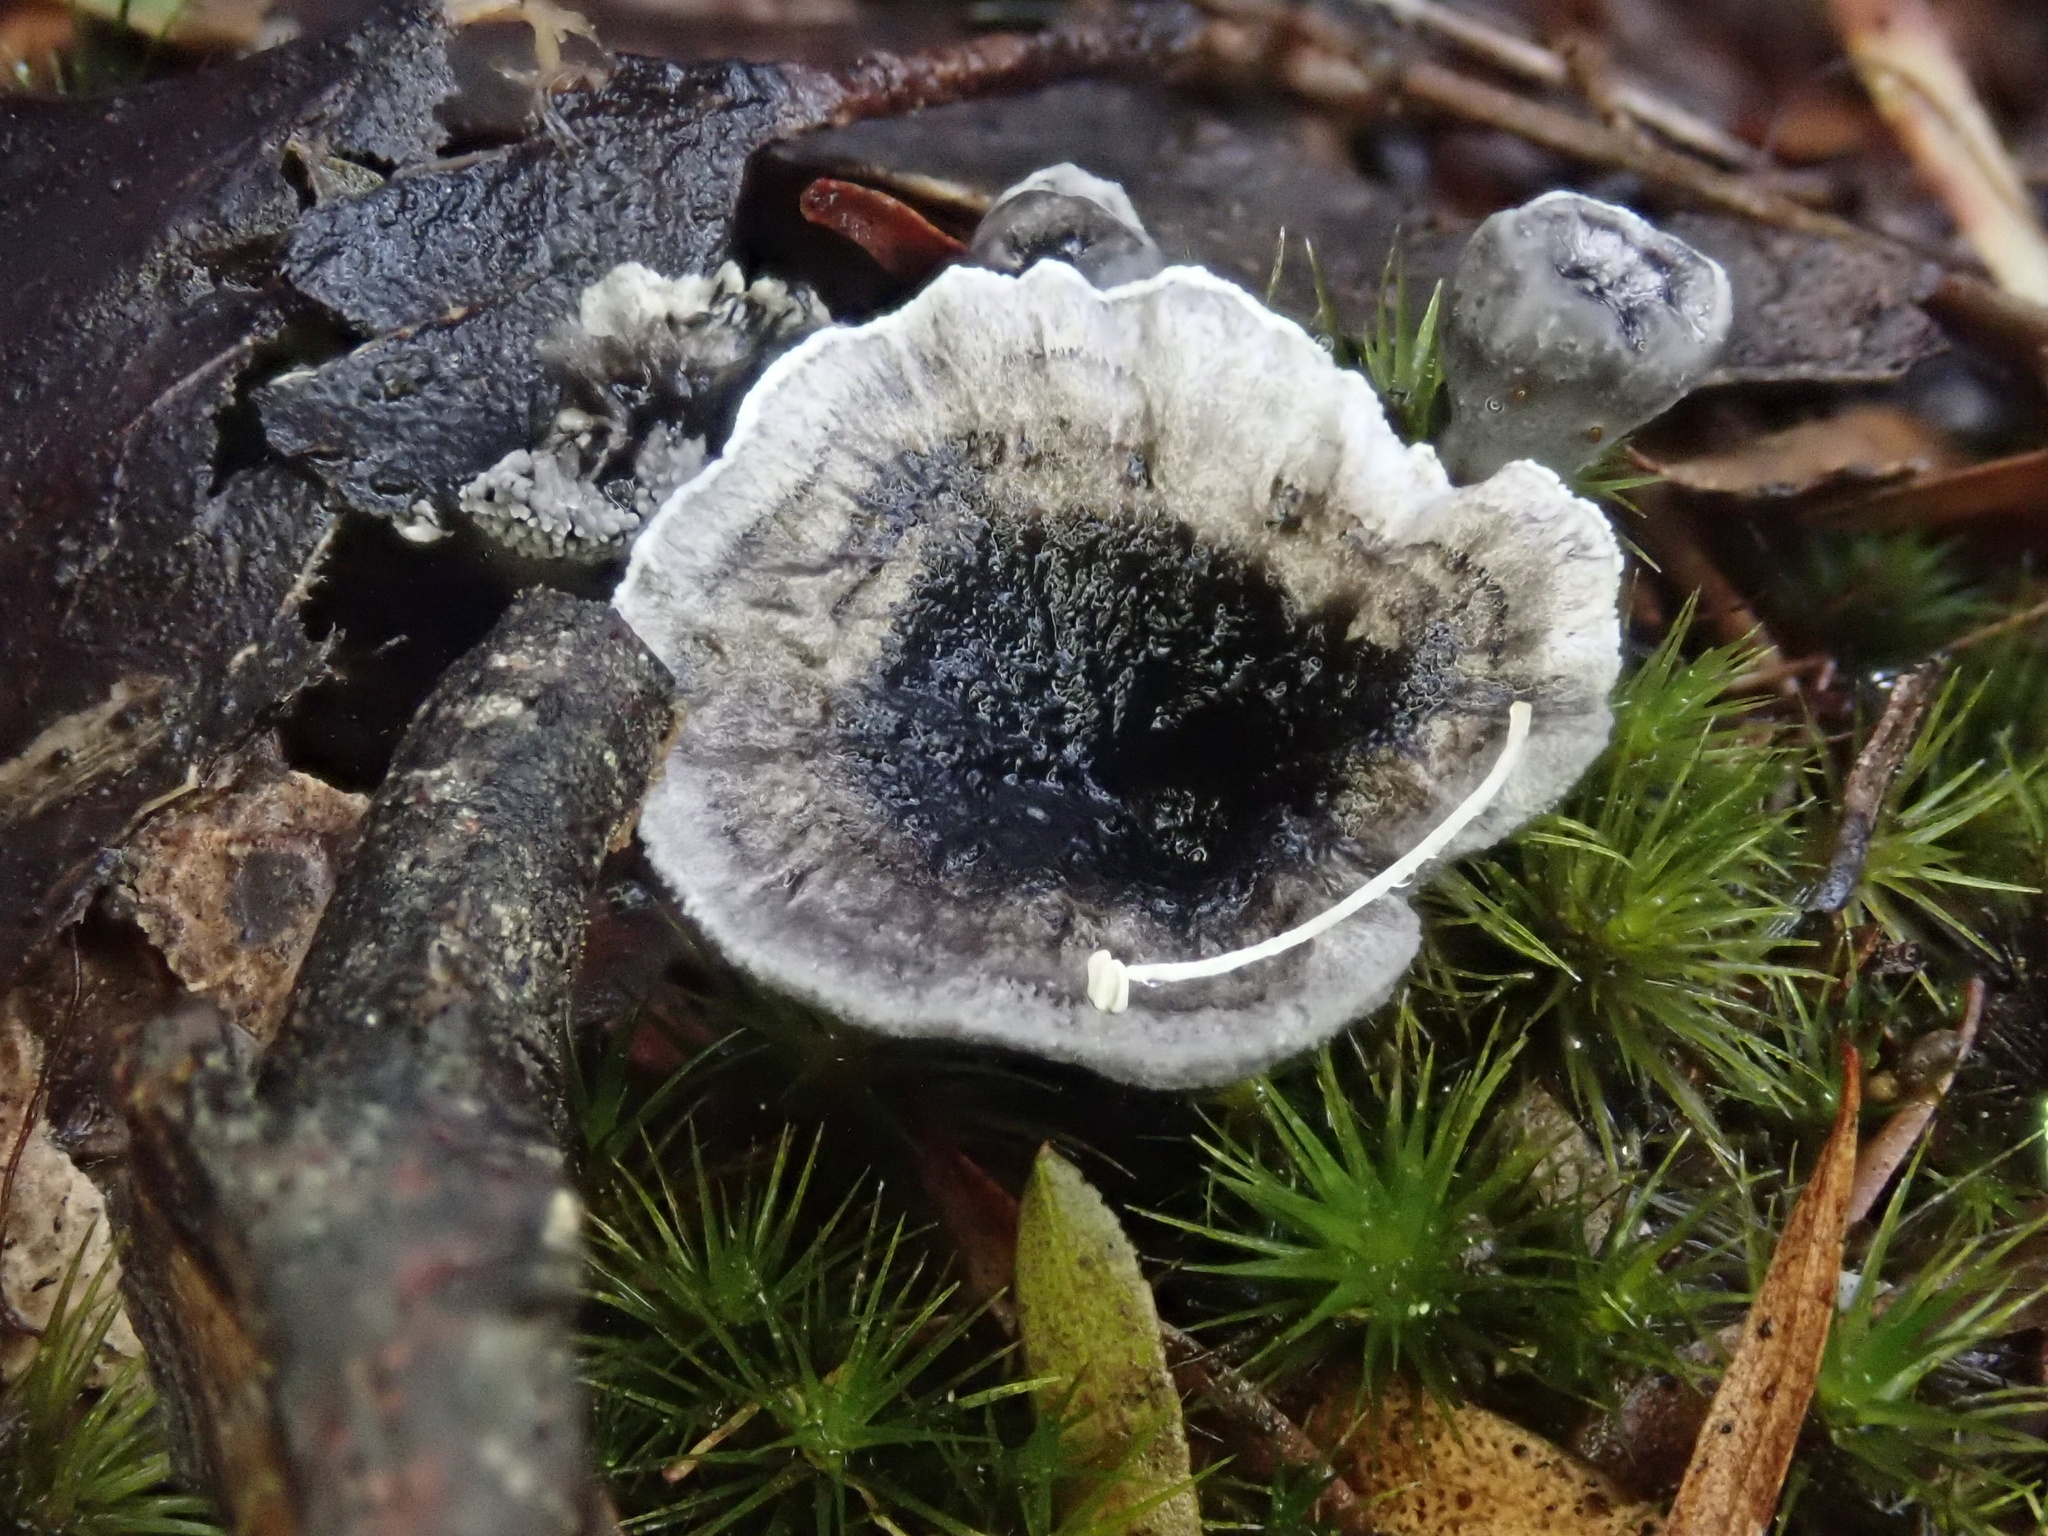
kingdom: Fungi
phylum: Basidiomycota
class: Agaricomycetes
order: Thelephorales
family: Thelephoraceae
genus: Phellodon
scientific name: Phellodon niger
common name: Black tooth
